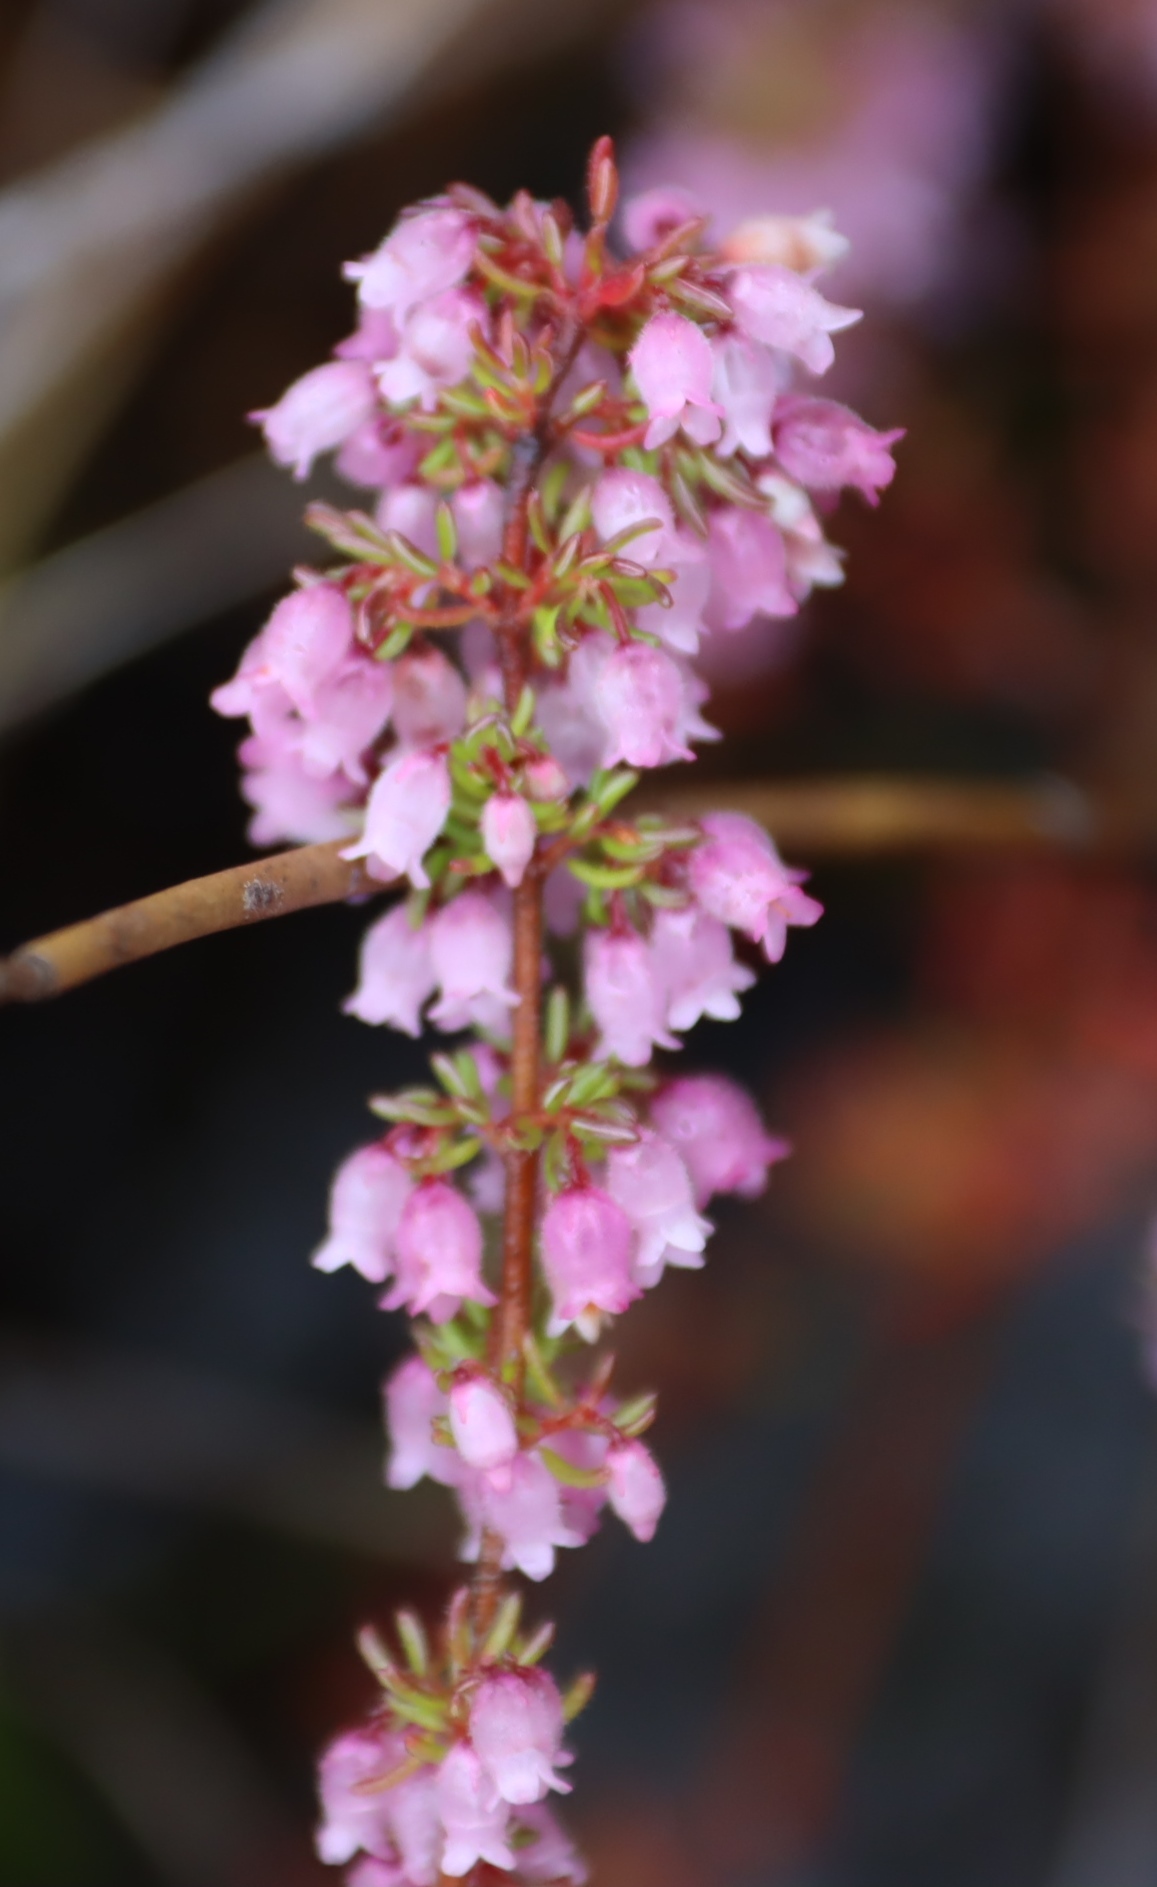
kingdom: Plantae
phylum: Tracheophyta
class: Magnoliopsida
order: Ericales
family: Ericaceae
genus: Erica
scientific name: Erica intervallaris
